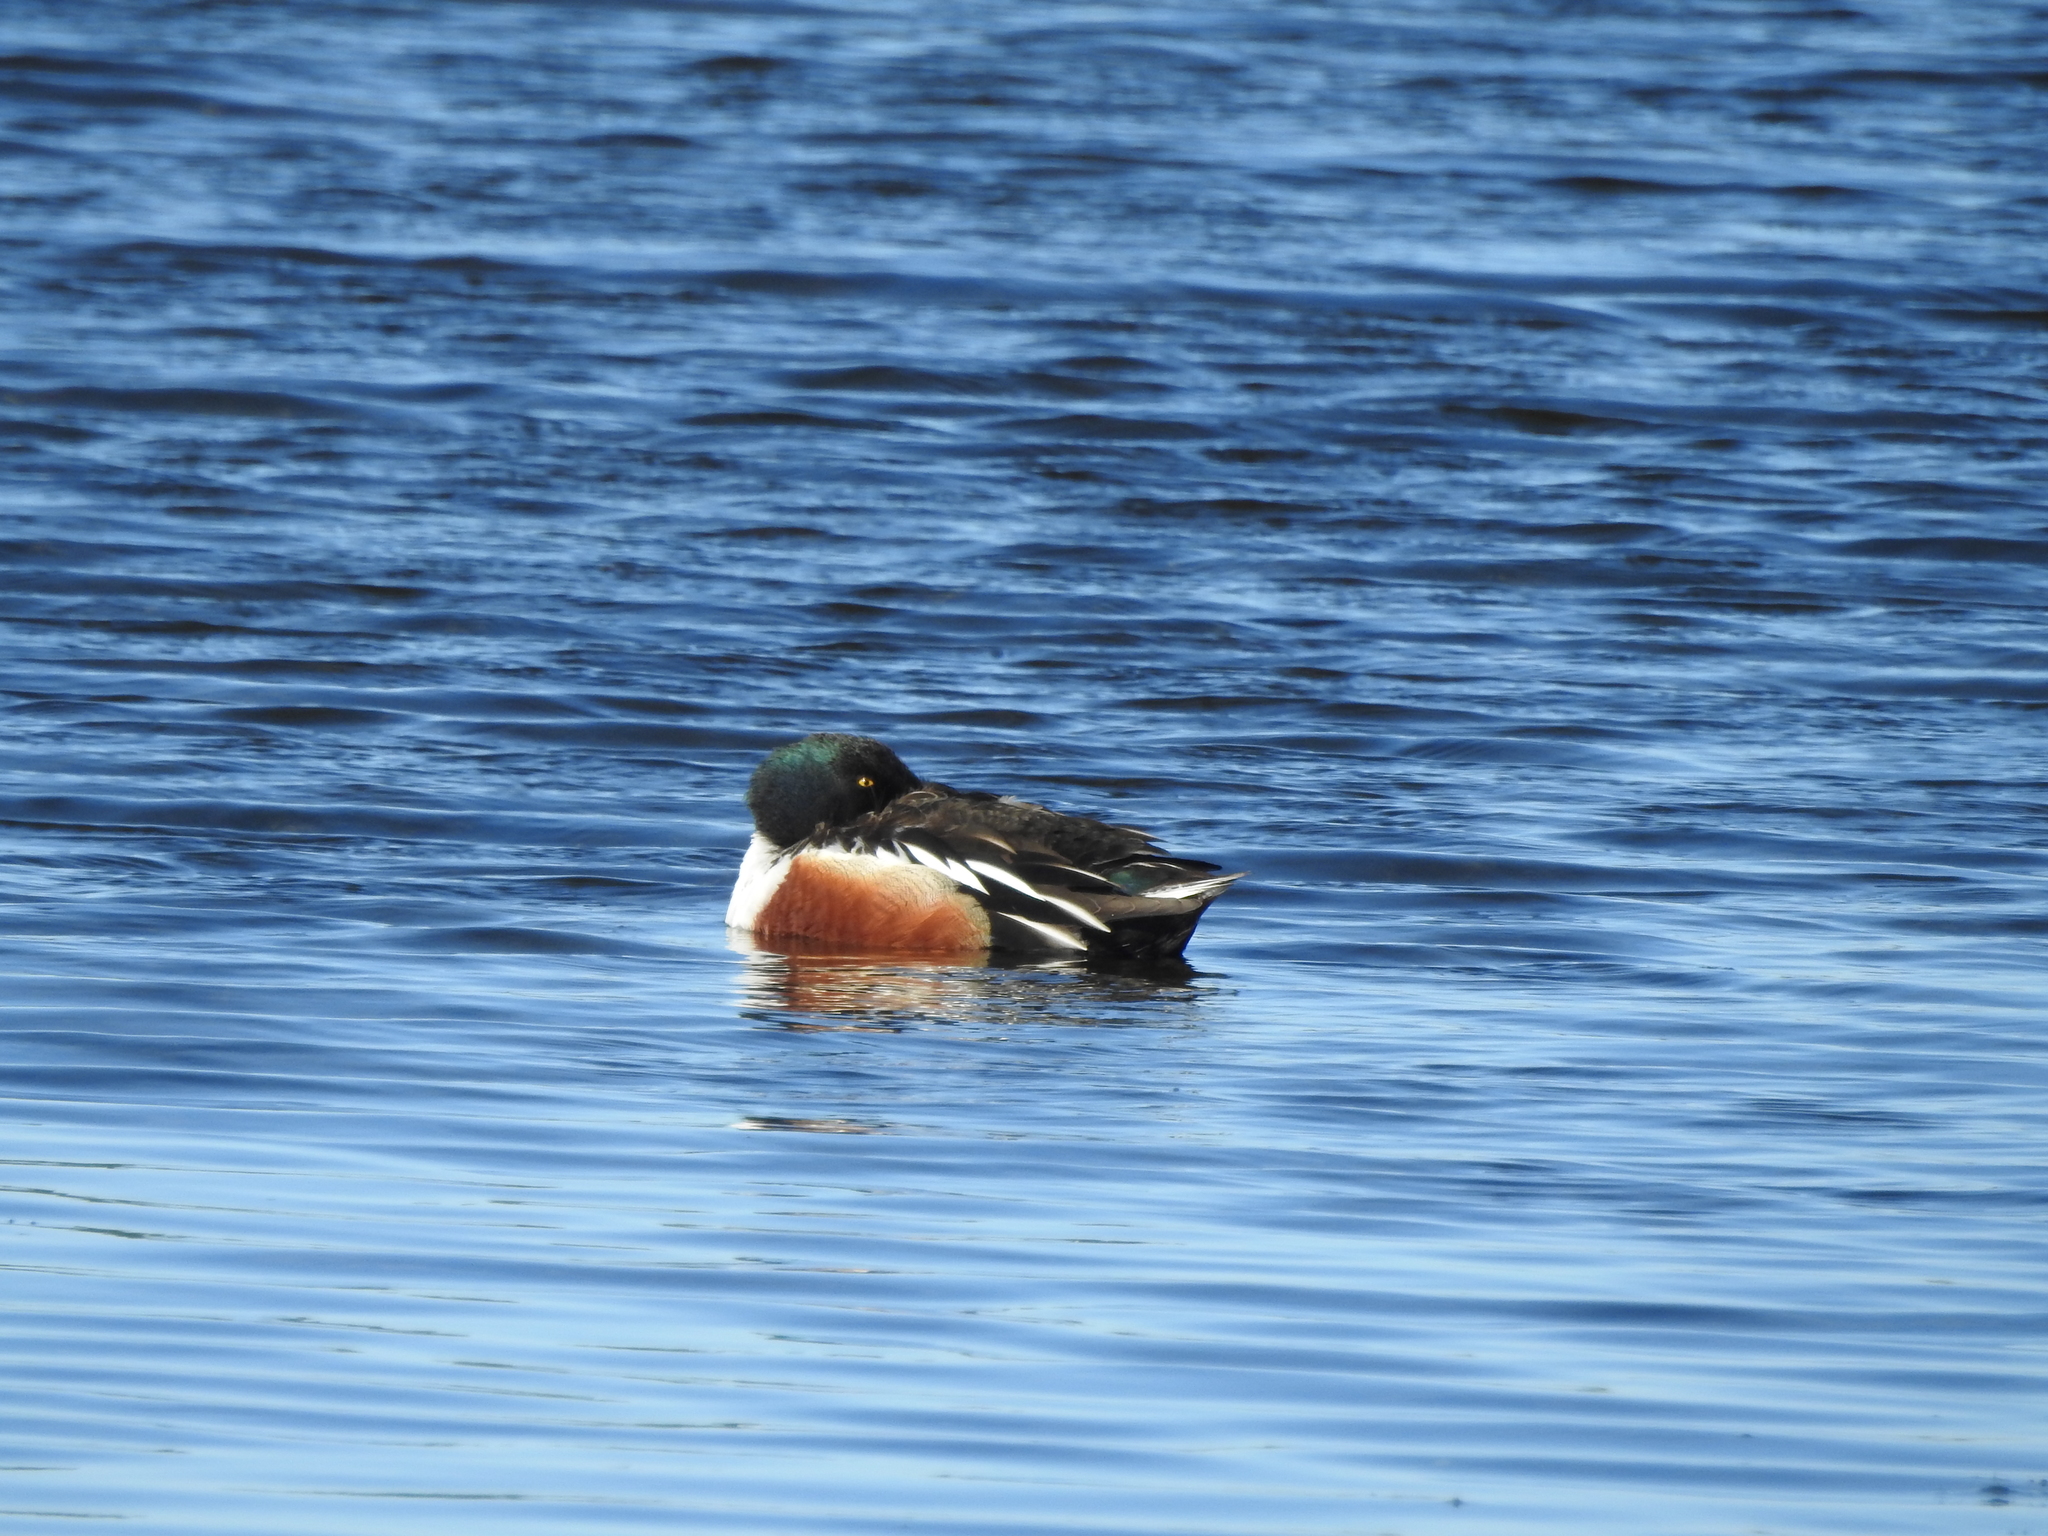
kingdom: Animalia
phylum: Chordata
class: Aves
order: Anseriformes
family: Anatidae
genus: Spatula
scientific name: Spatula clypeata
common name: Northern shoveler
